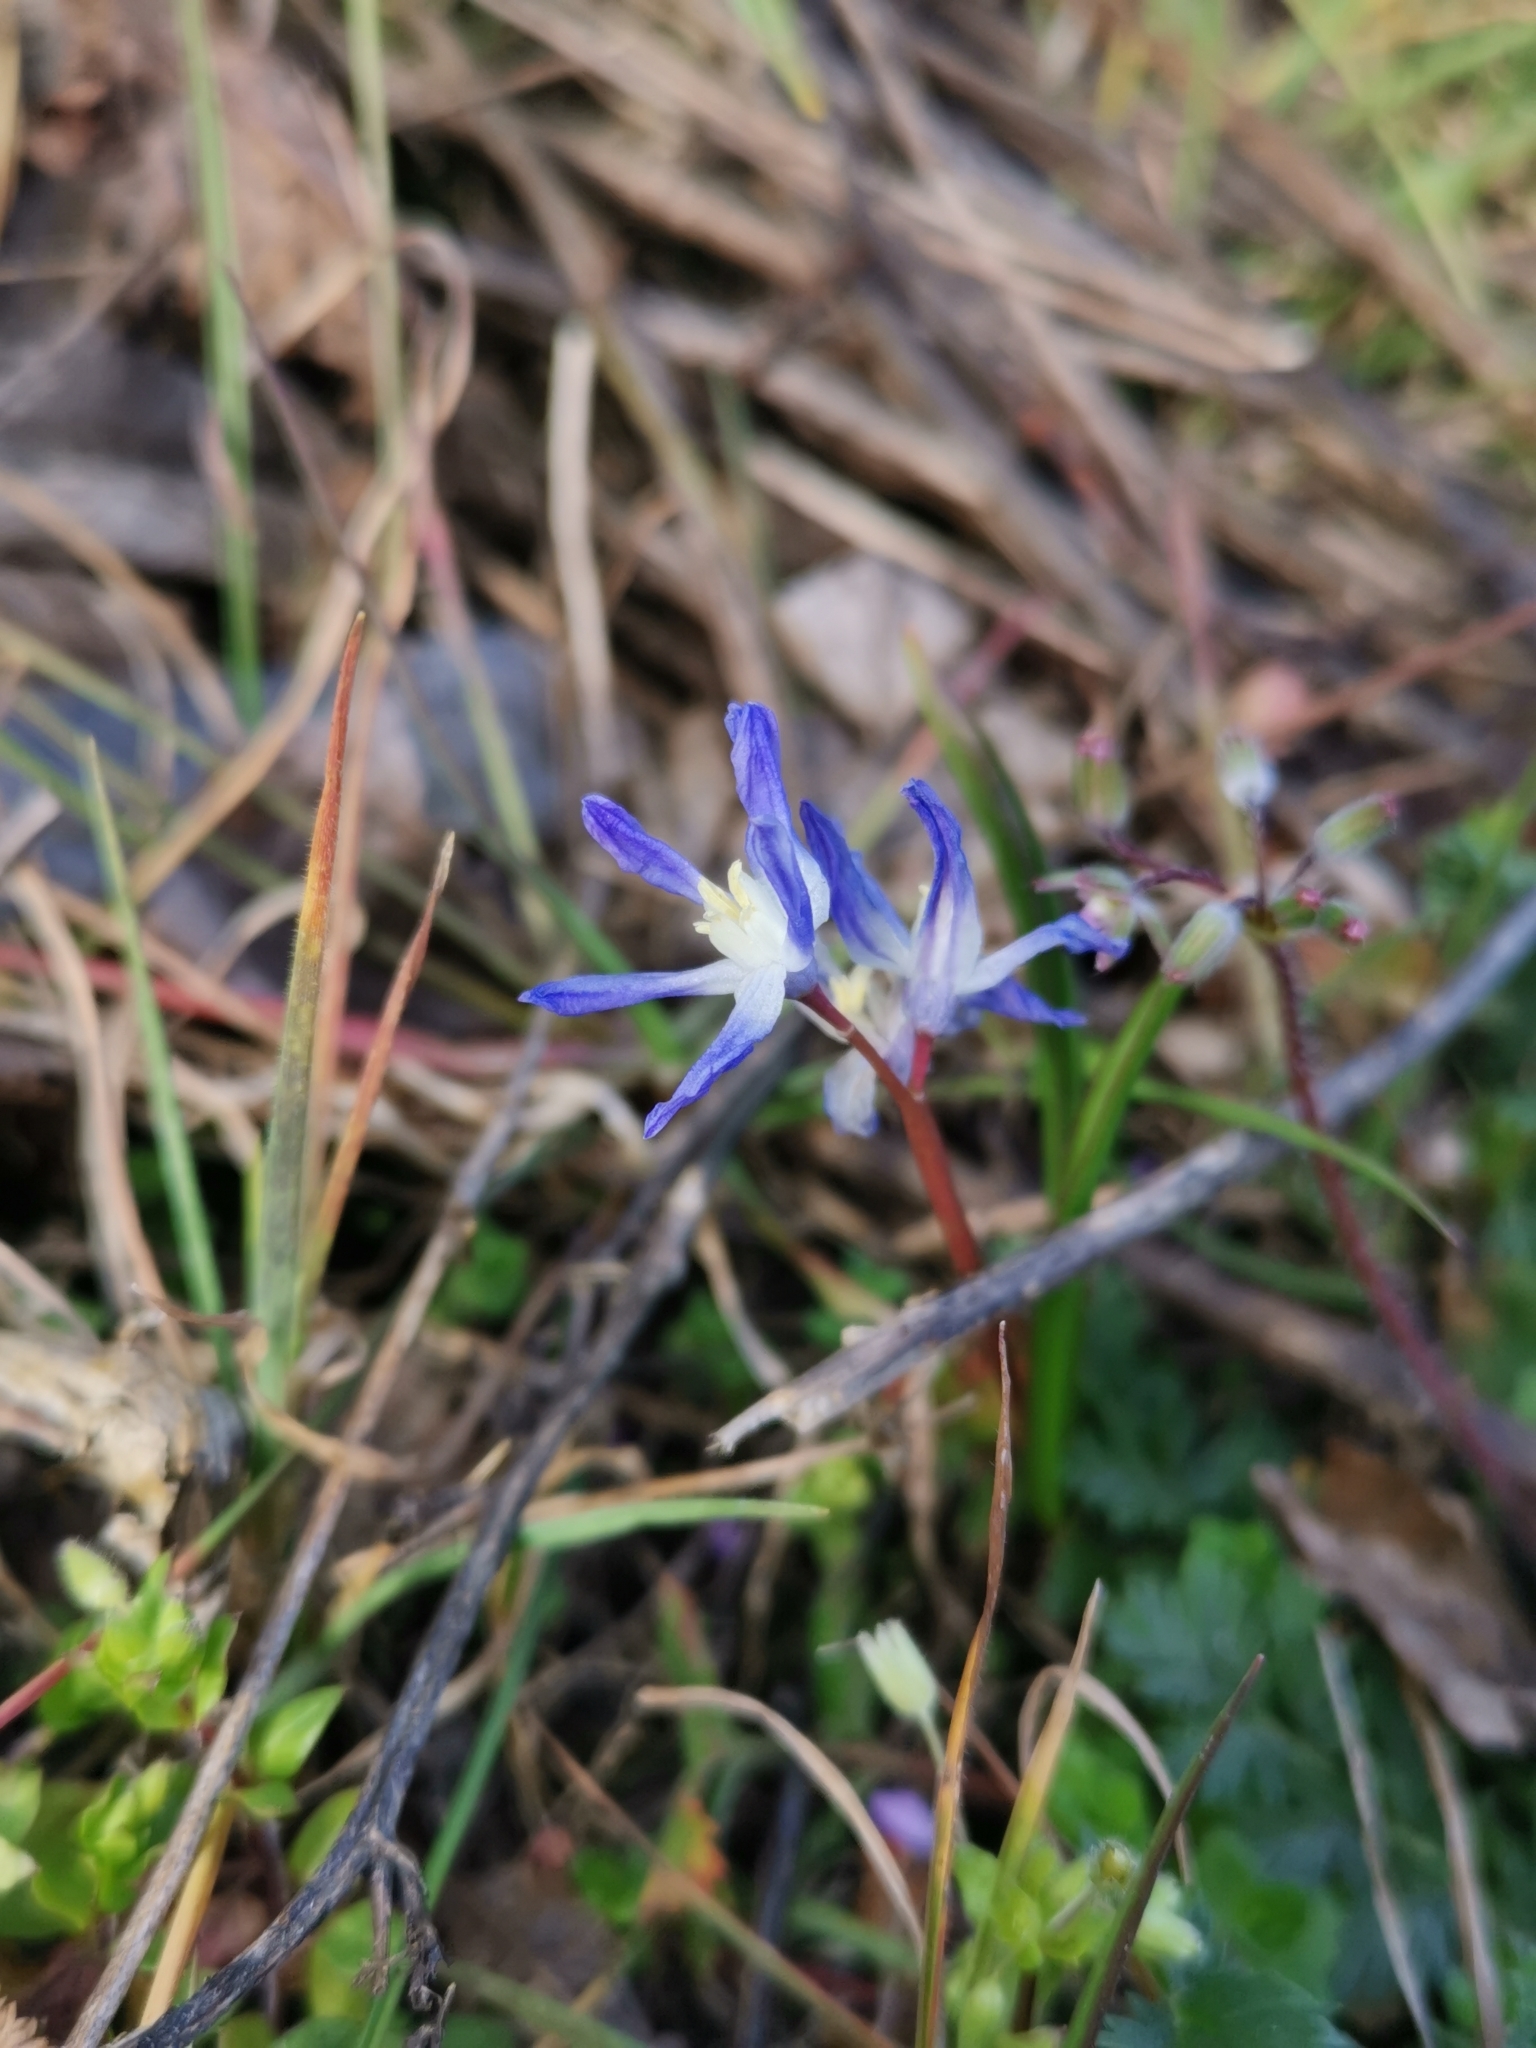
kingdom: Plantae
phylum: Tracheophyta
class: Liliopsida
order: Asparagales
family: Asparagaceae
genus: Scilla
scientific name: Scilla luciliae
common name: Boissier's glory-of-the-snow
